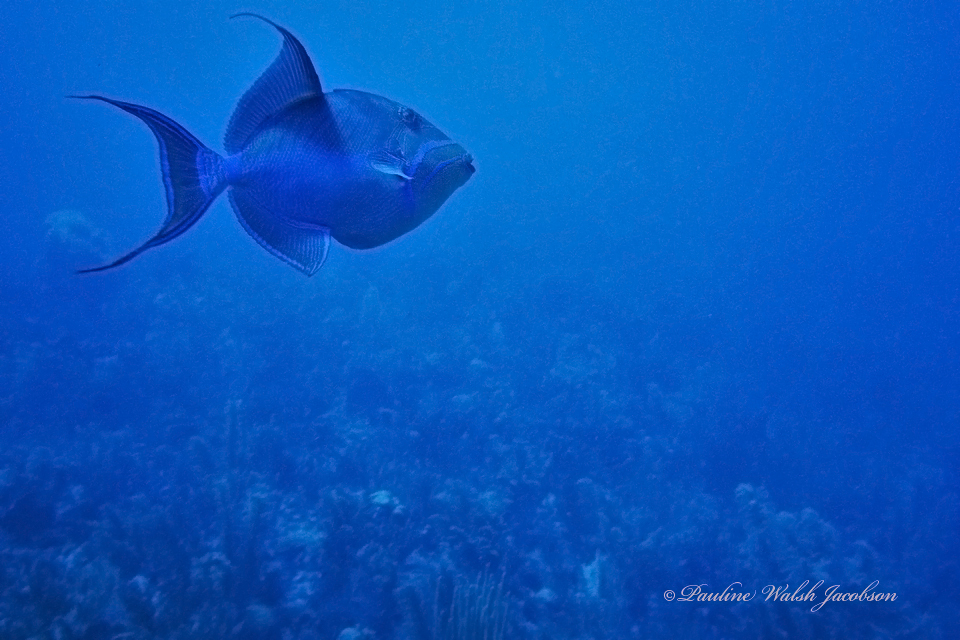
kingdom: Animalia
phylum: Chordata
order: Tetraodontiformes
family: Balistidae
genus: Balistes
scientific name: Balistes vetula
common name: Queen triggerfish
